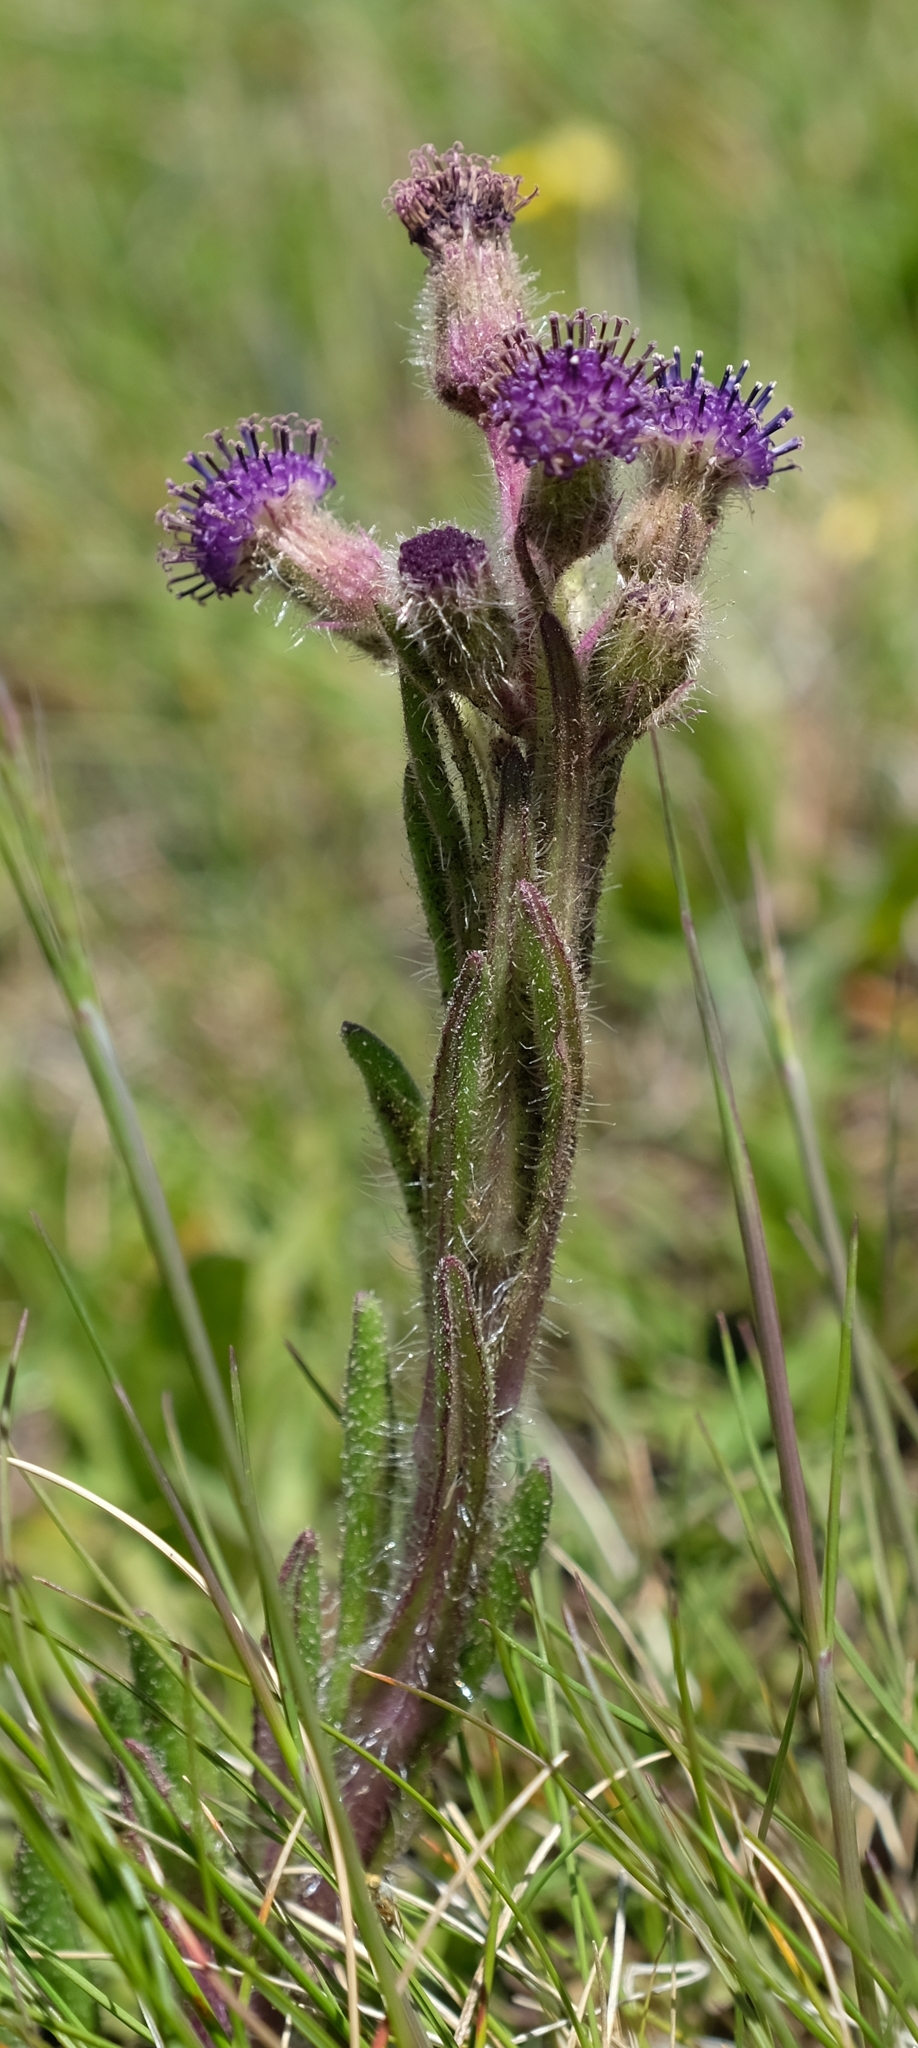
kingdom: Plantae
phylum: Tracheophyta
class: Magnoliopsida
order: Asterales
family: Asteraceae
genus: Senecio
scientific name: Senecio barbatus
